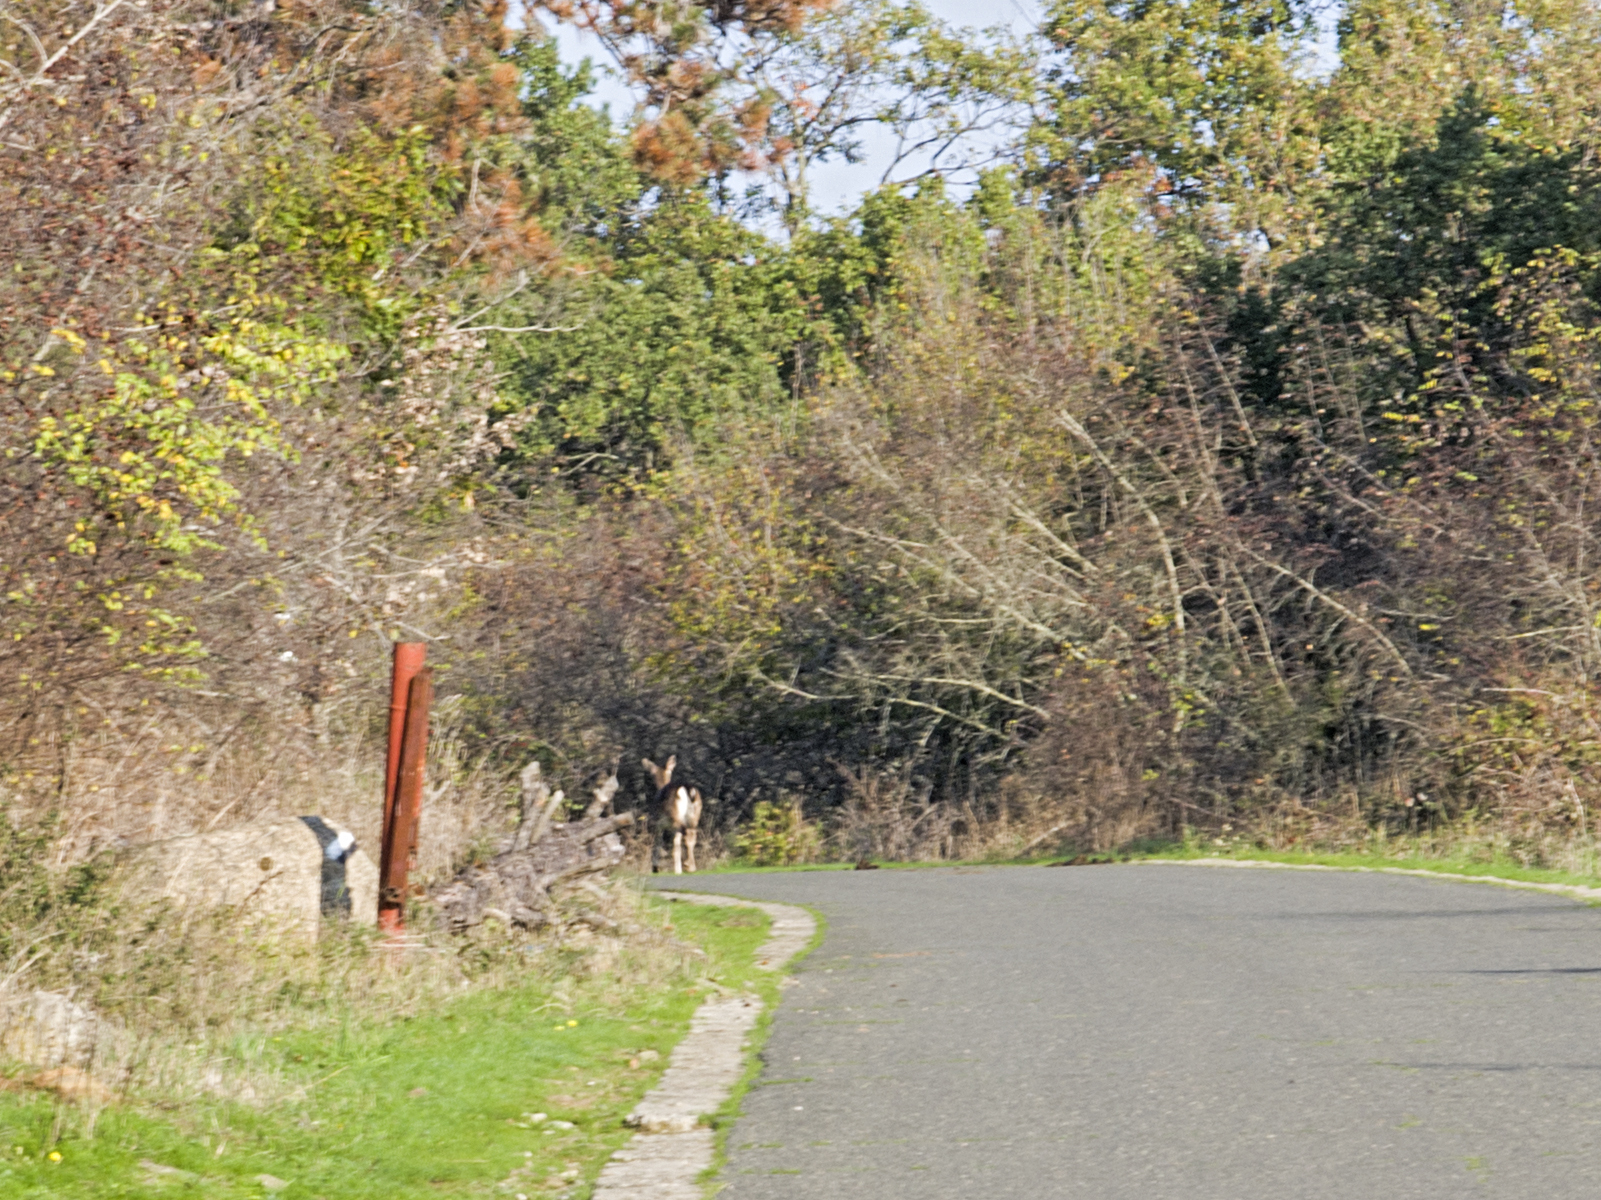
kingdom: Animalia
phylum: Chordata
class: Mammalia
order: Artiodactyla
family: Cervidae
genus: Dama
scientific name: Dama dama
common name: Fallow deer
